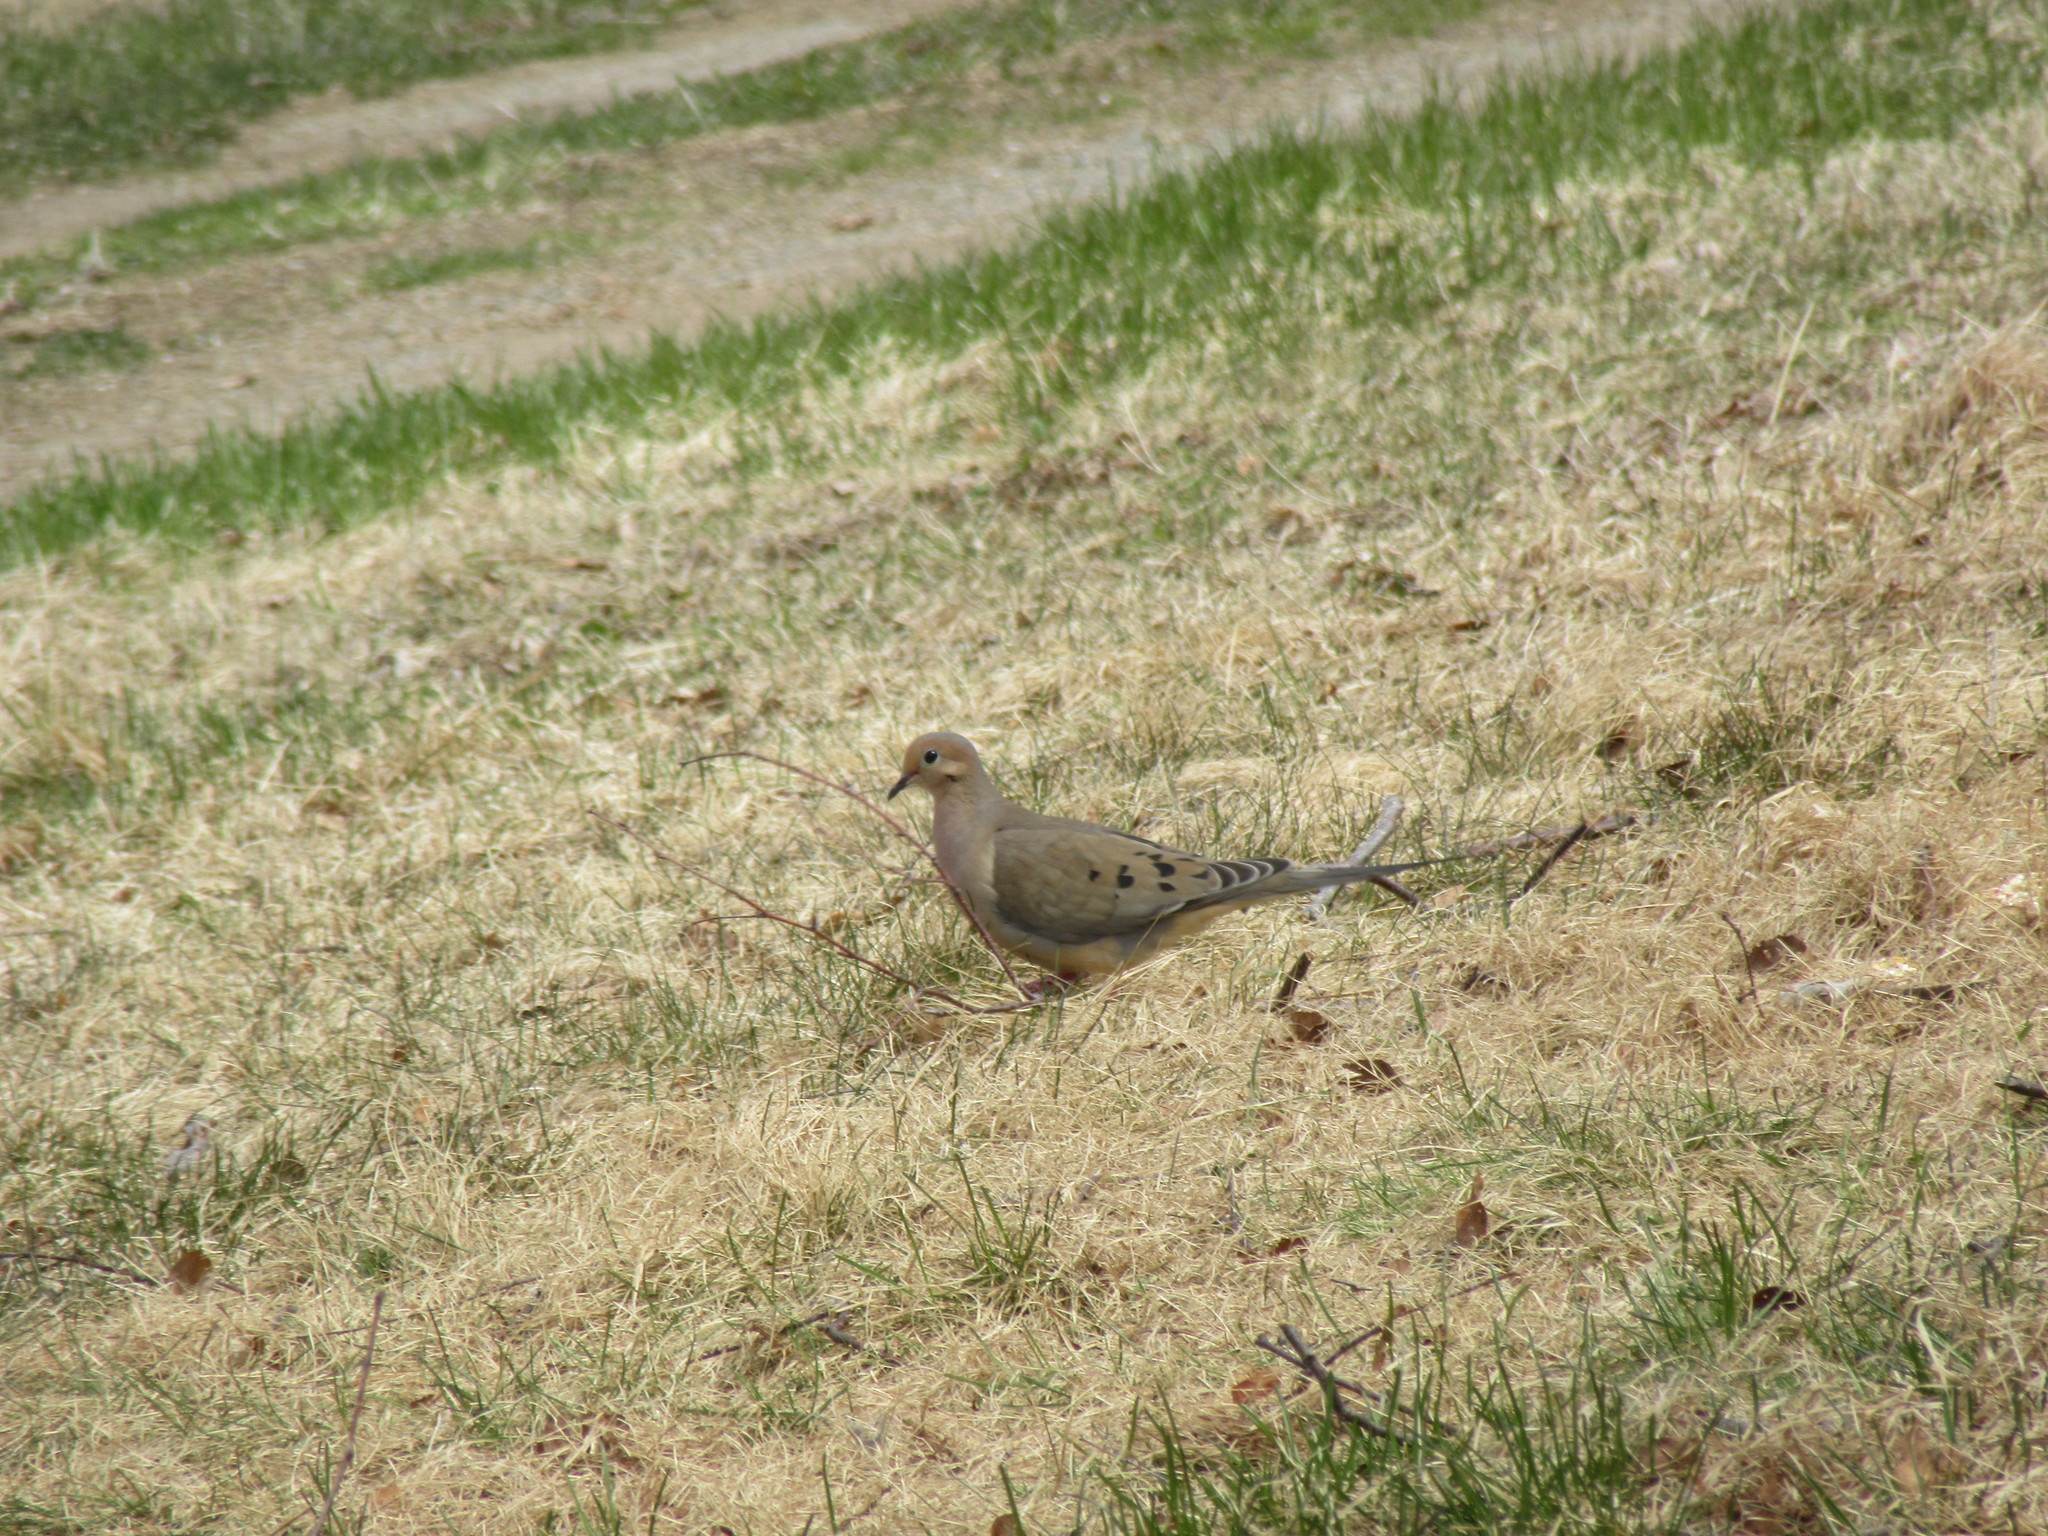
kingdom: Animalia
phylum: Chordata
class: Aves
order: Columbiformes
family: Columbidae
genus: Zenaida
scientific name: Zenaida macroura
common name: Mourning dove
